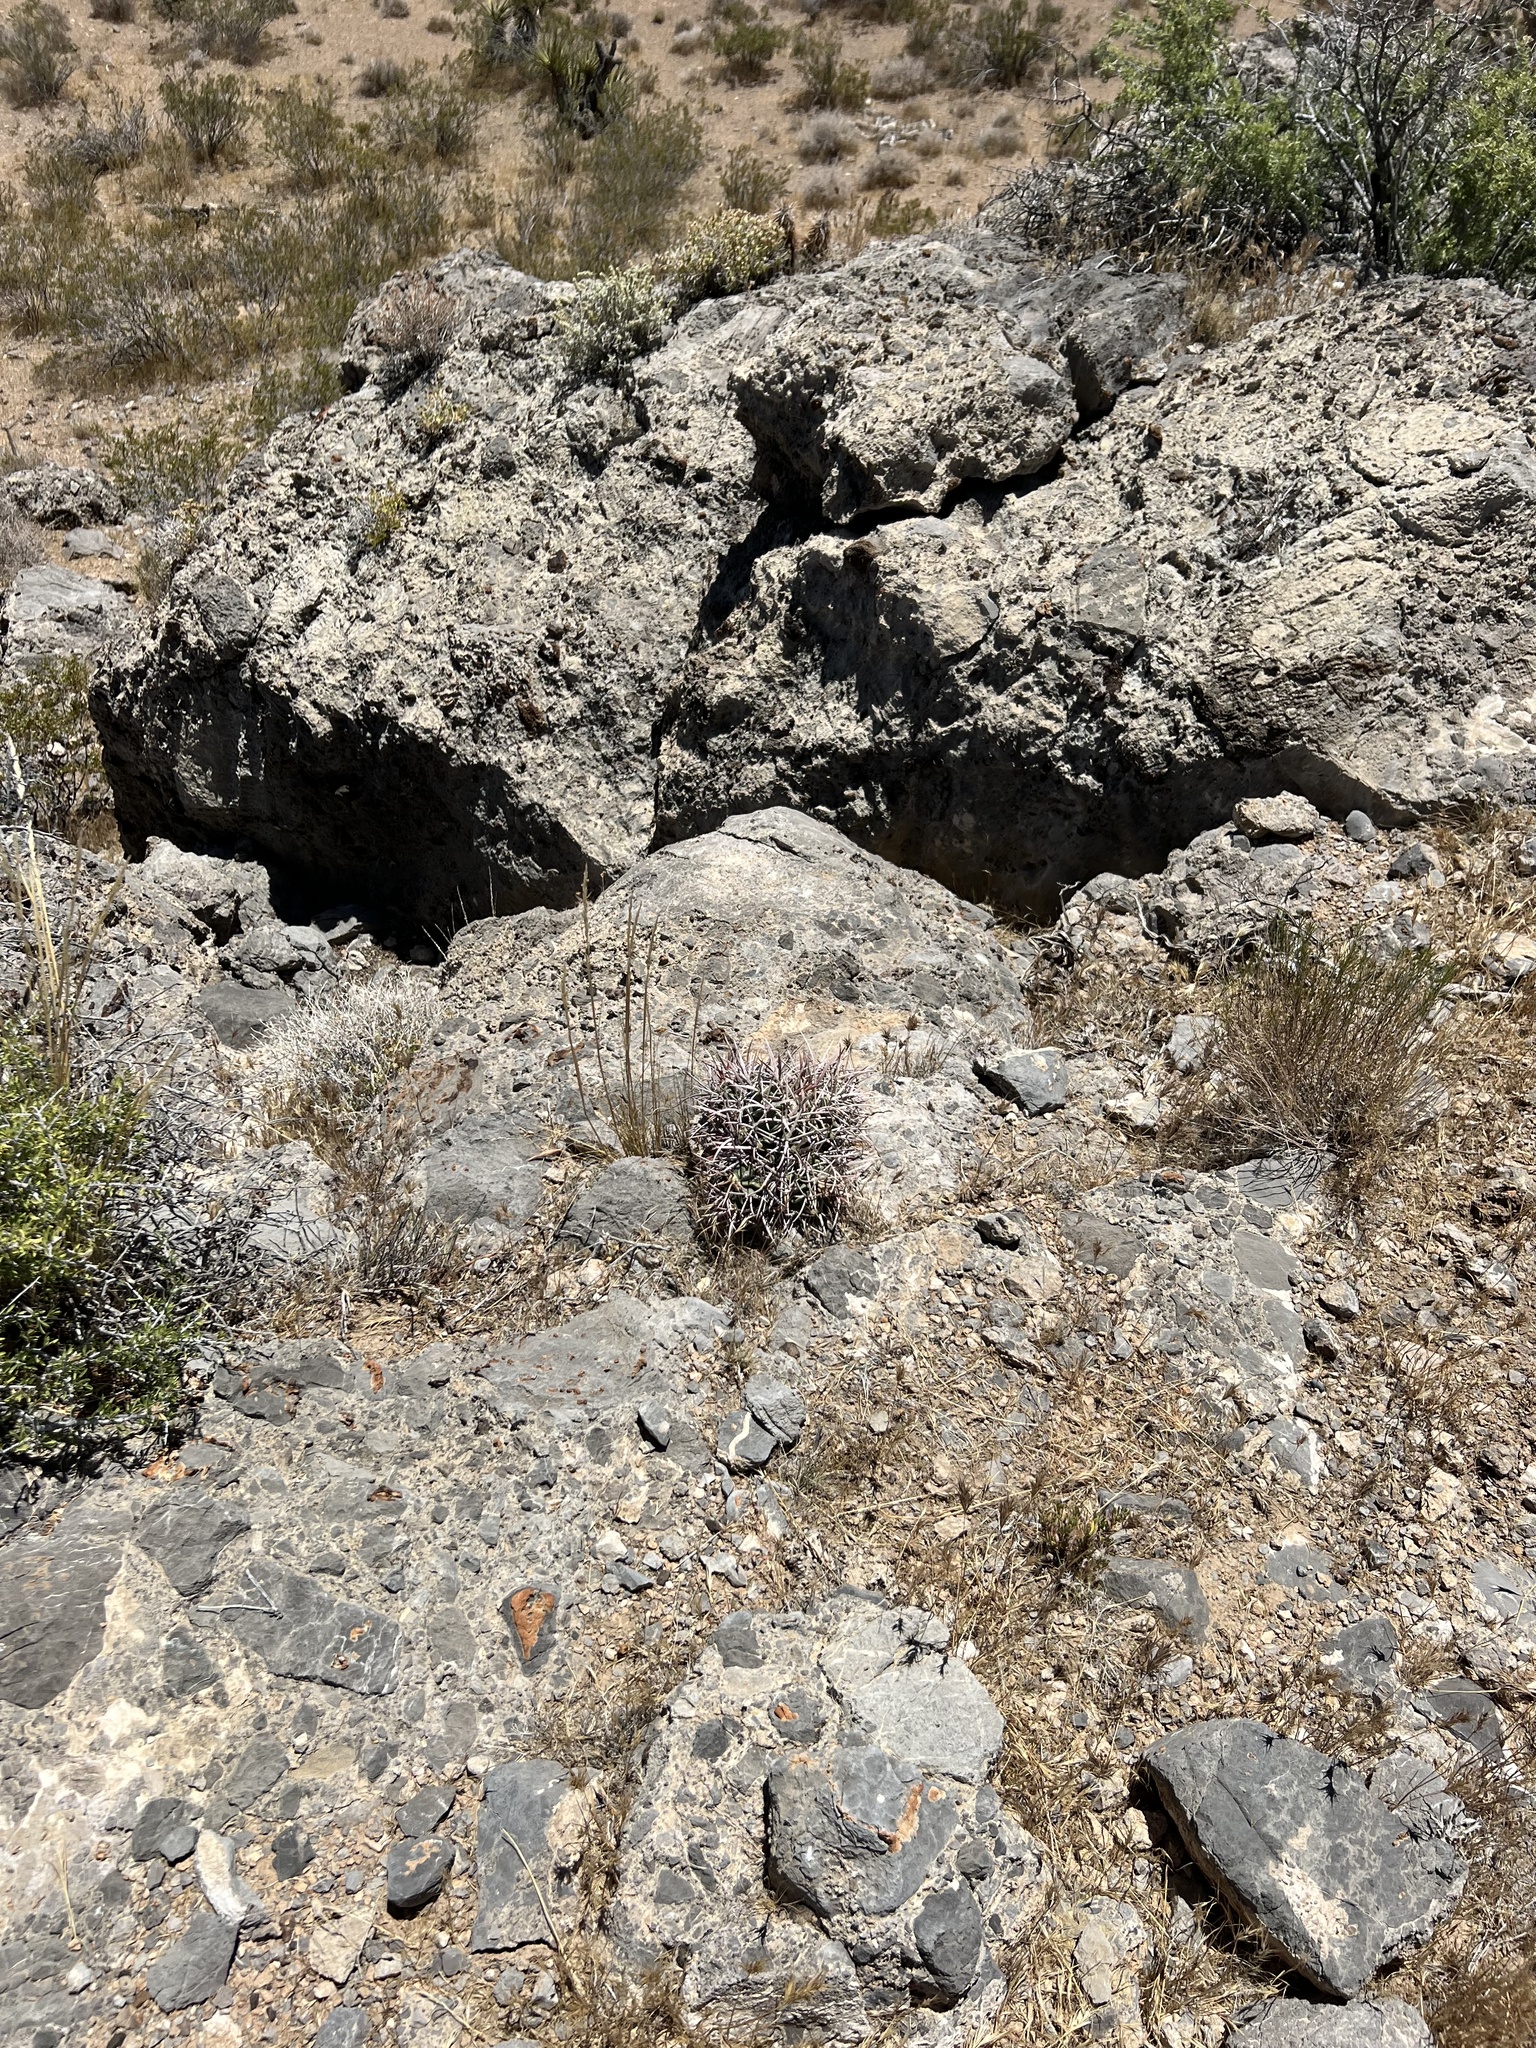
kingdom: Plantae
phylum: Tracheophyta
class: Magnoliopsida
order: Caryophyllales
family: Cactaceae
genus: Echinocactus
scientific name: Echinocactus polycephalus
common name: Cottontop cactus
